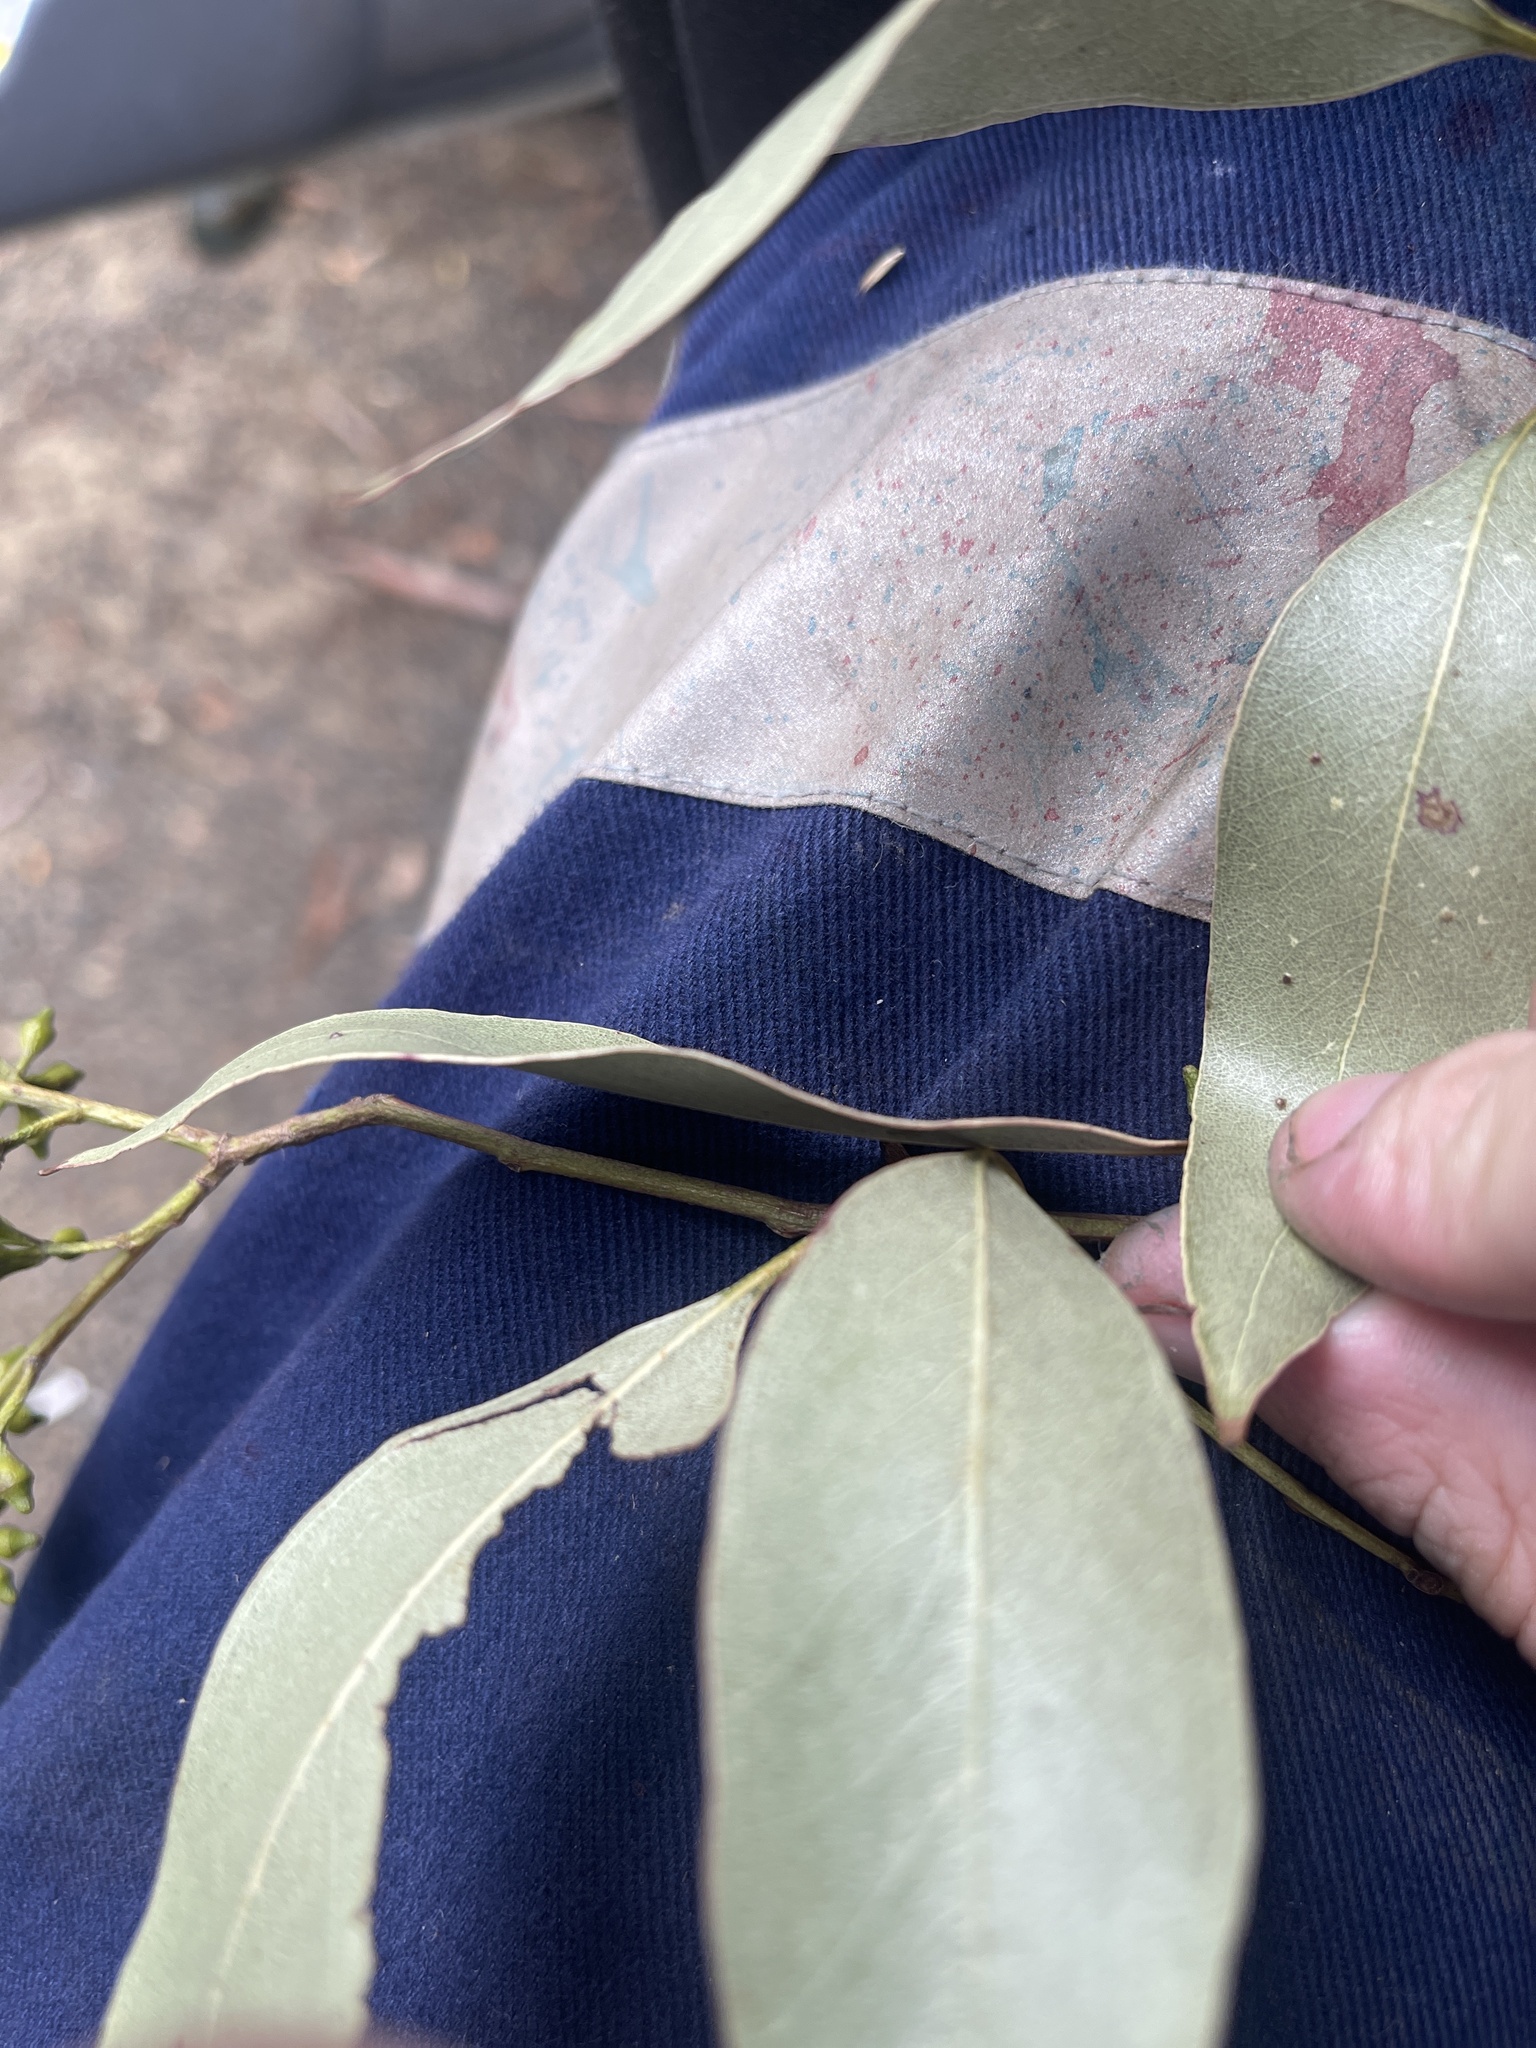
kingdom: Plantae
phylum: Tracheophyta
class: Magnoliopsida
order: Myrtales
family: Myrtaceae
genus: Eucalyptus
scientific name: Eucalyptus ovata
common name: Black-gum
